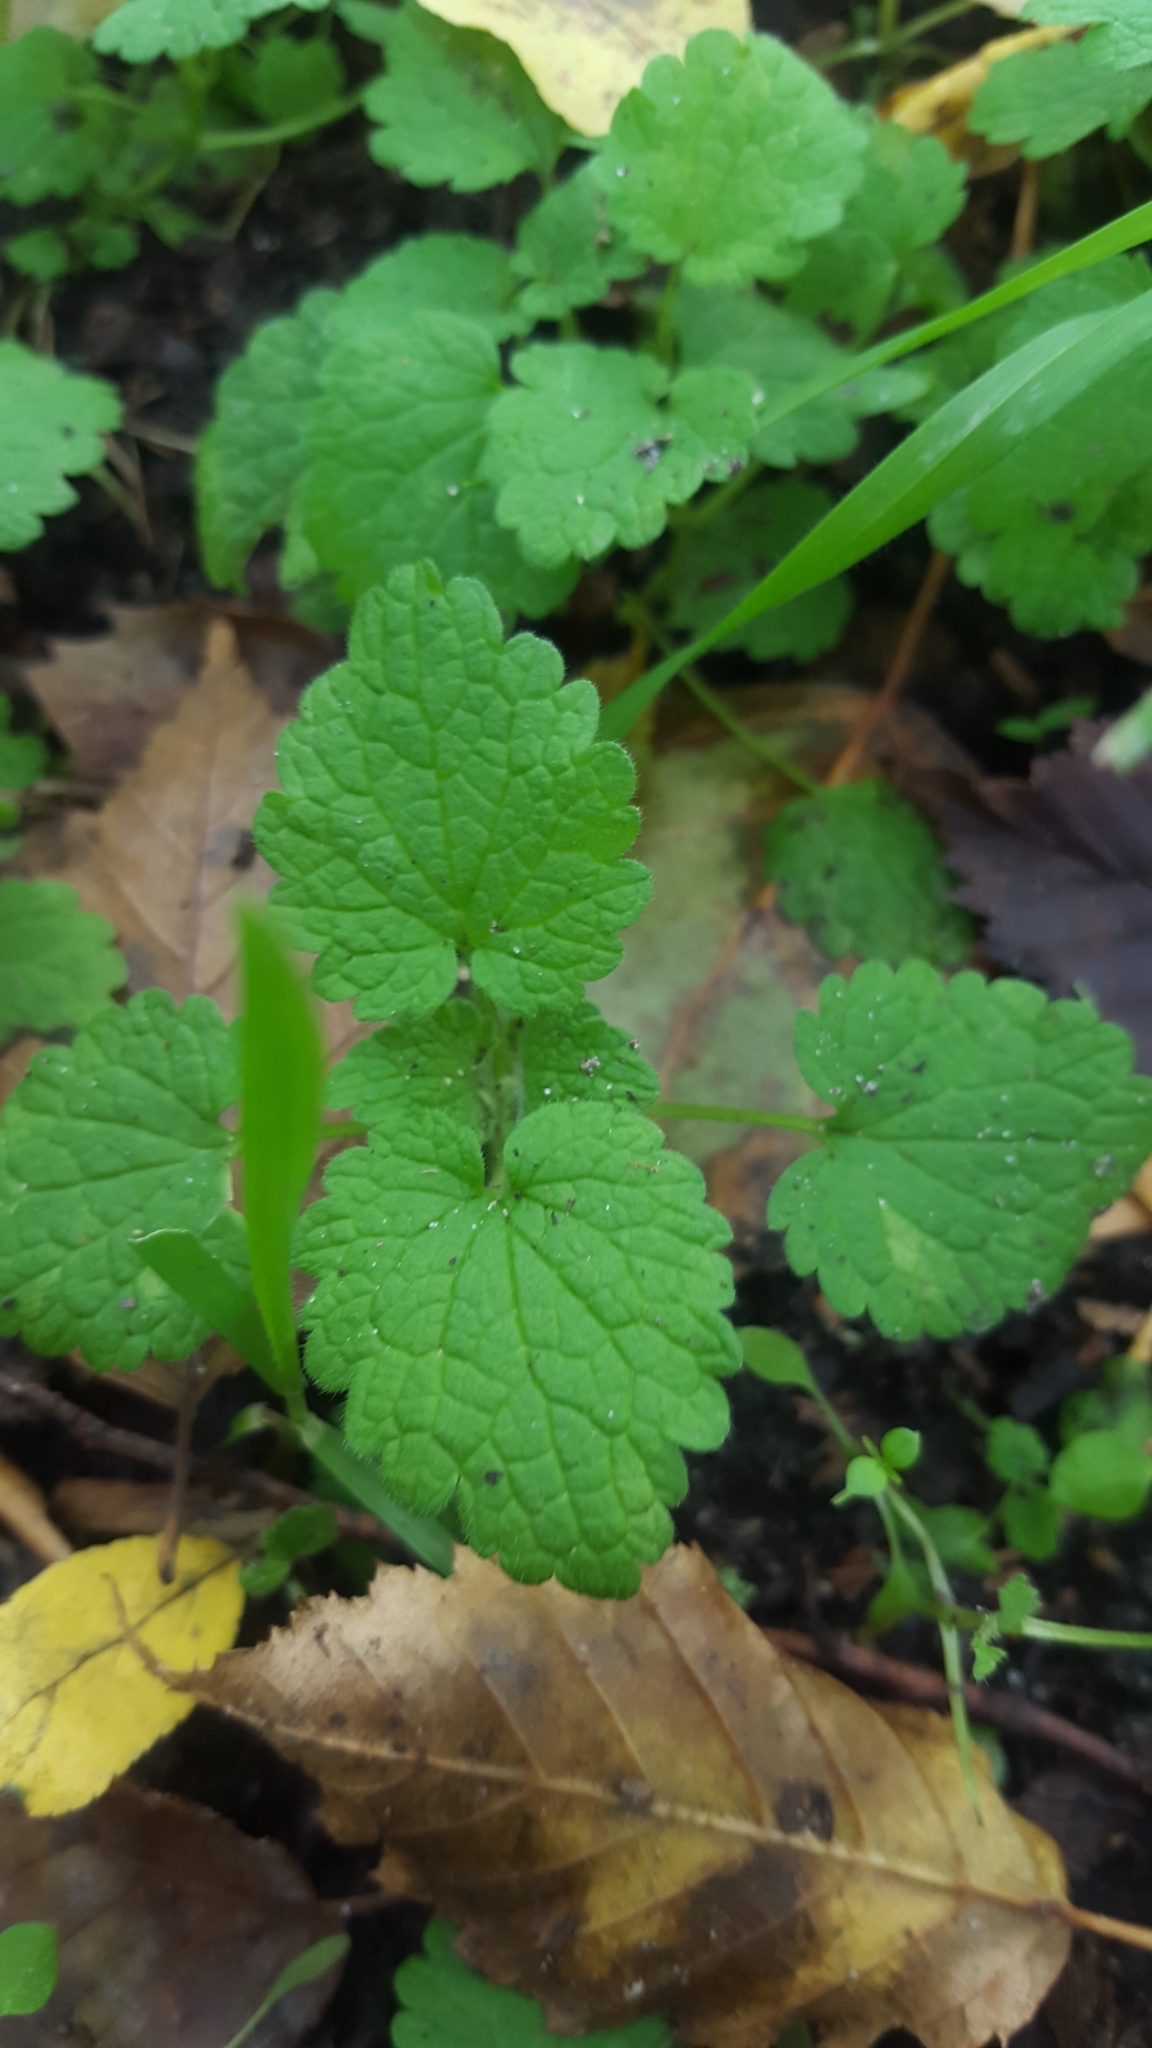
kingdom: Plantae
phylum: Tracheophyta
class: Magnoliopsida
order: Lamiales
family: Lamiaceae
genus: Lamium
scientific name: Lamium purpureum
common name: Red dead-nettle
